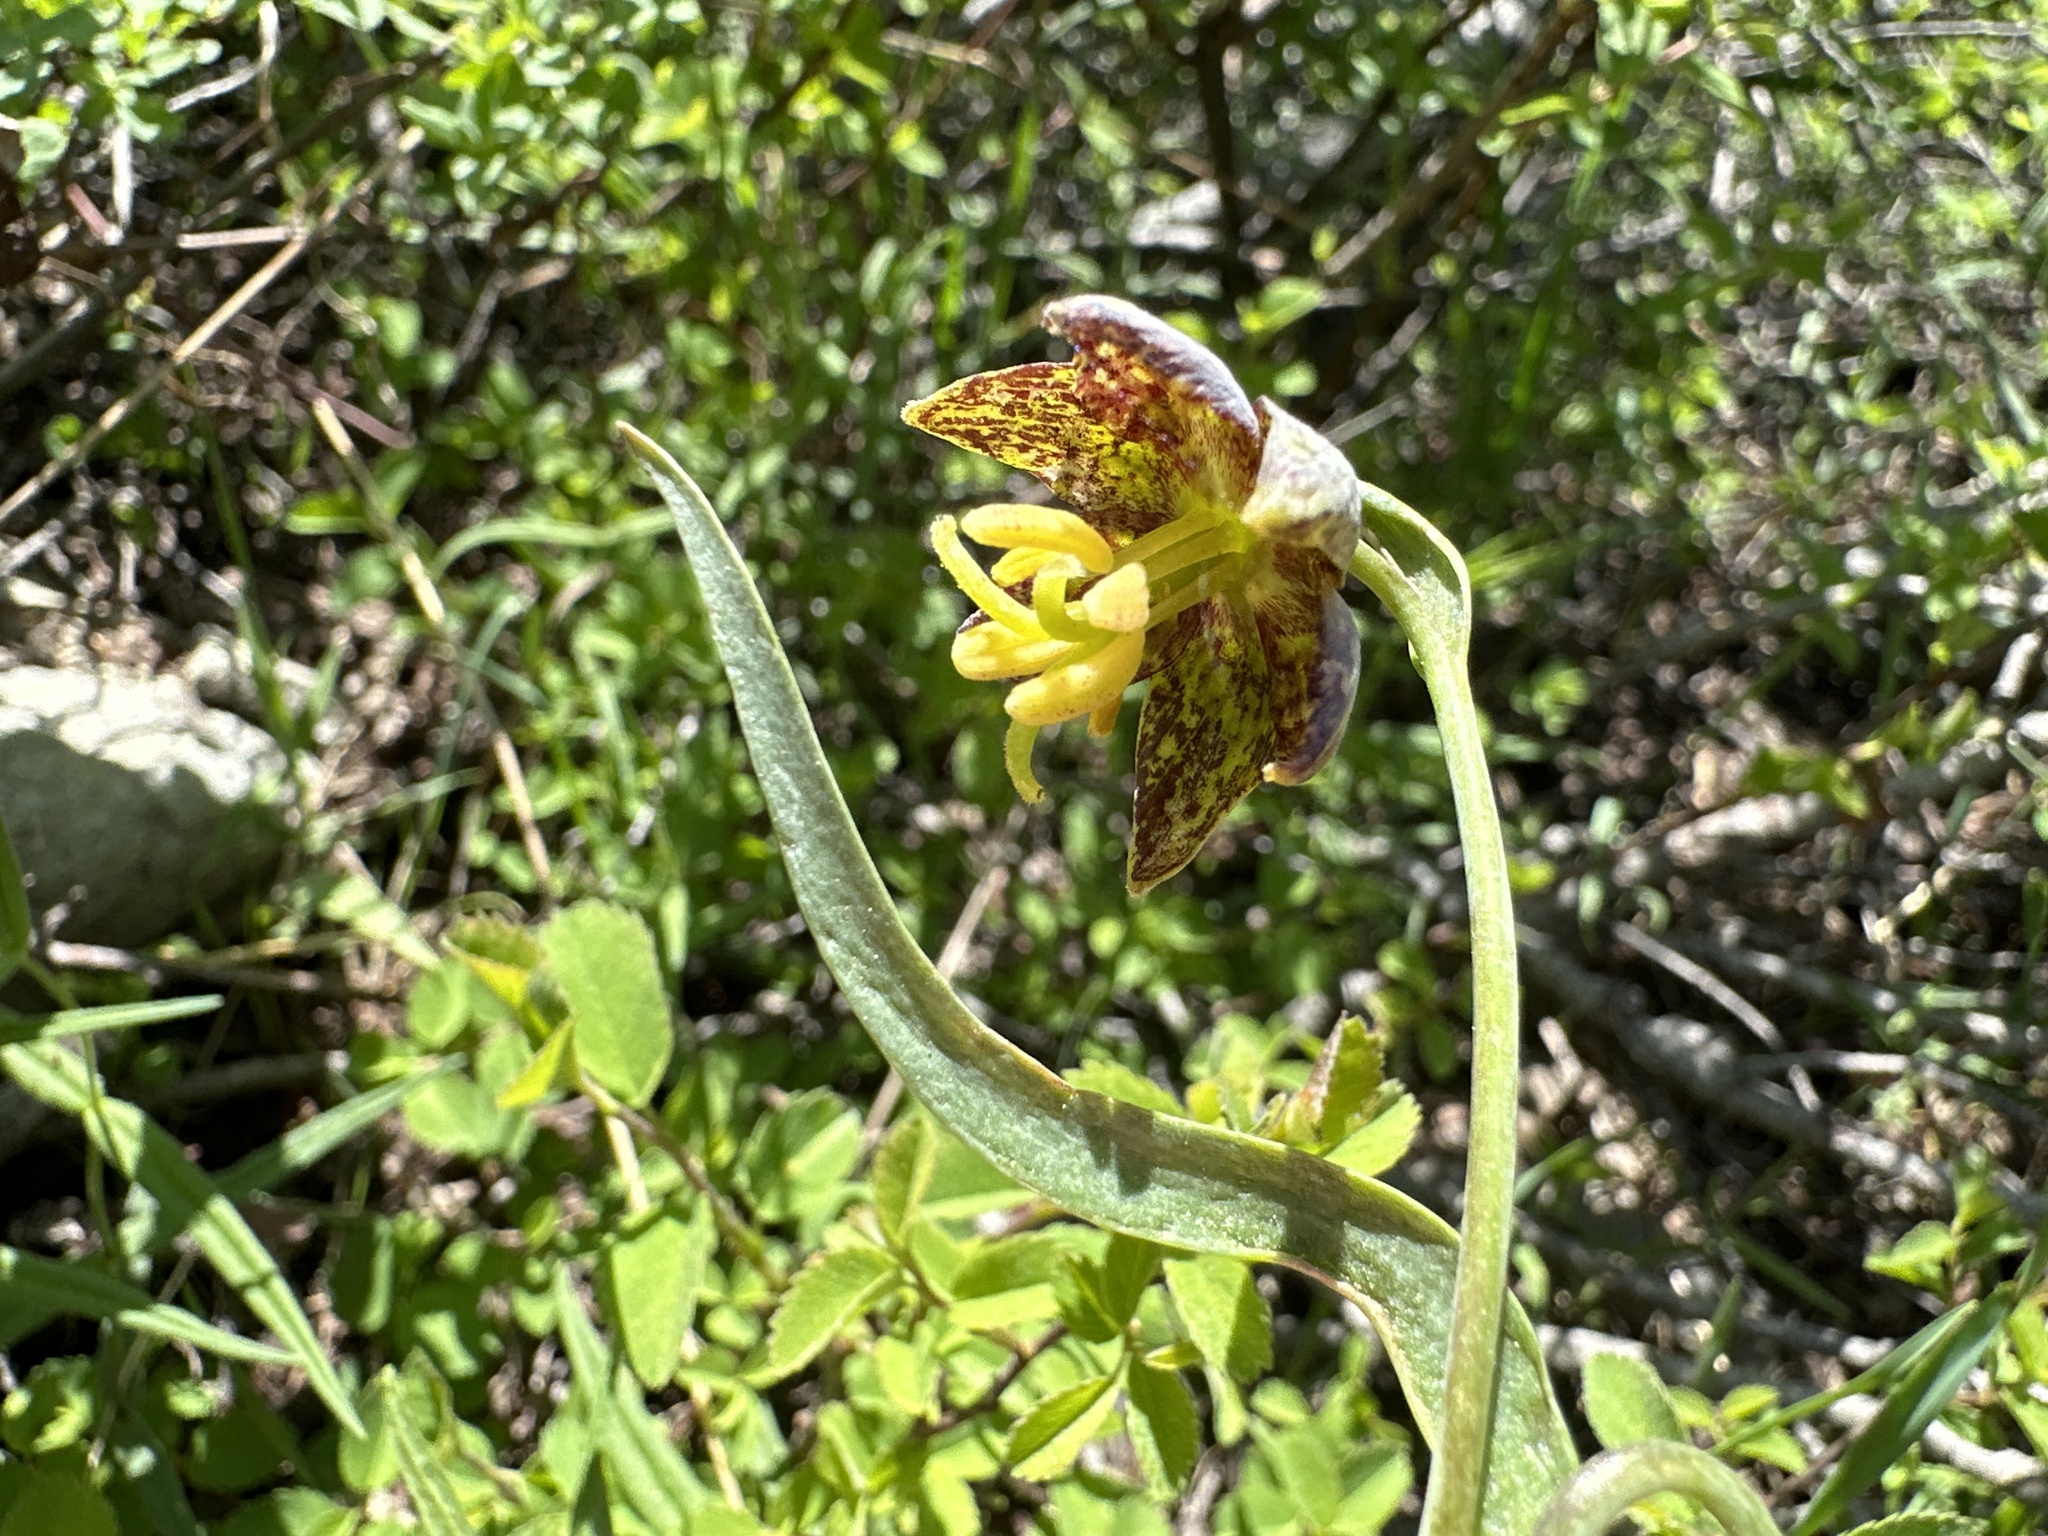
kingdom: Plantae
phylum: Tracheophyta
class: Liliopsida
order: Liliales
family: Liliaceae
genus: Fritillaria
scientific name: Fritillaria atropurpurea
